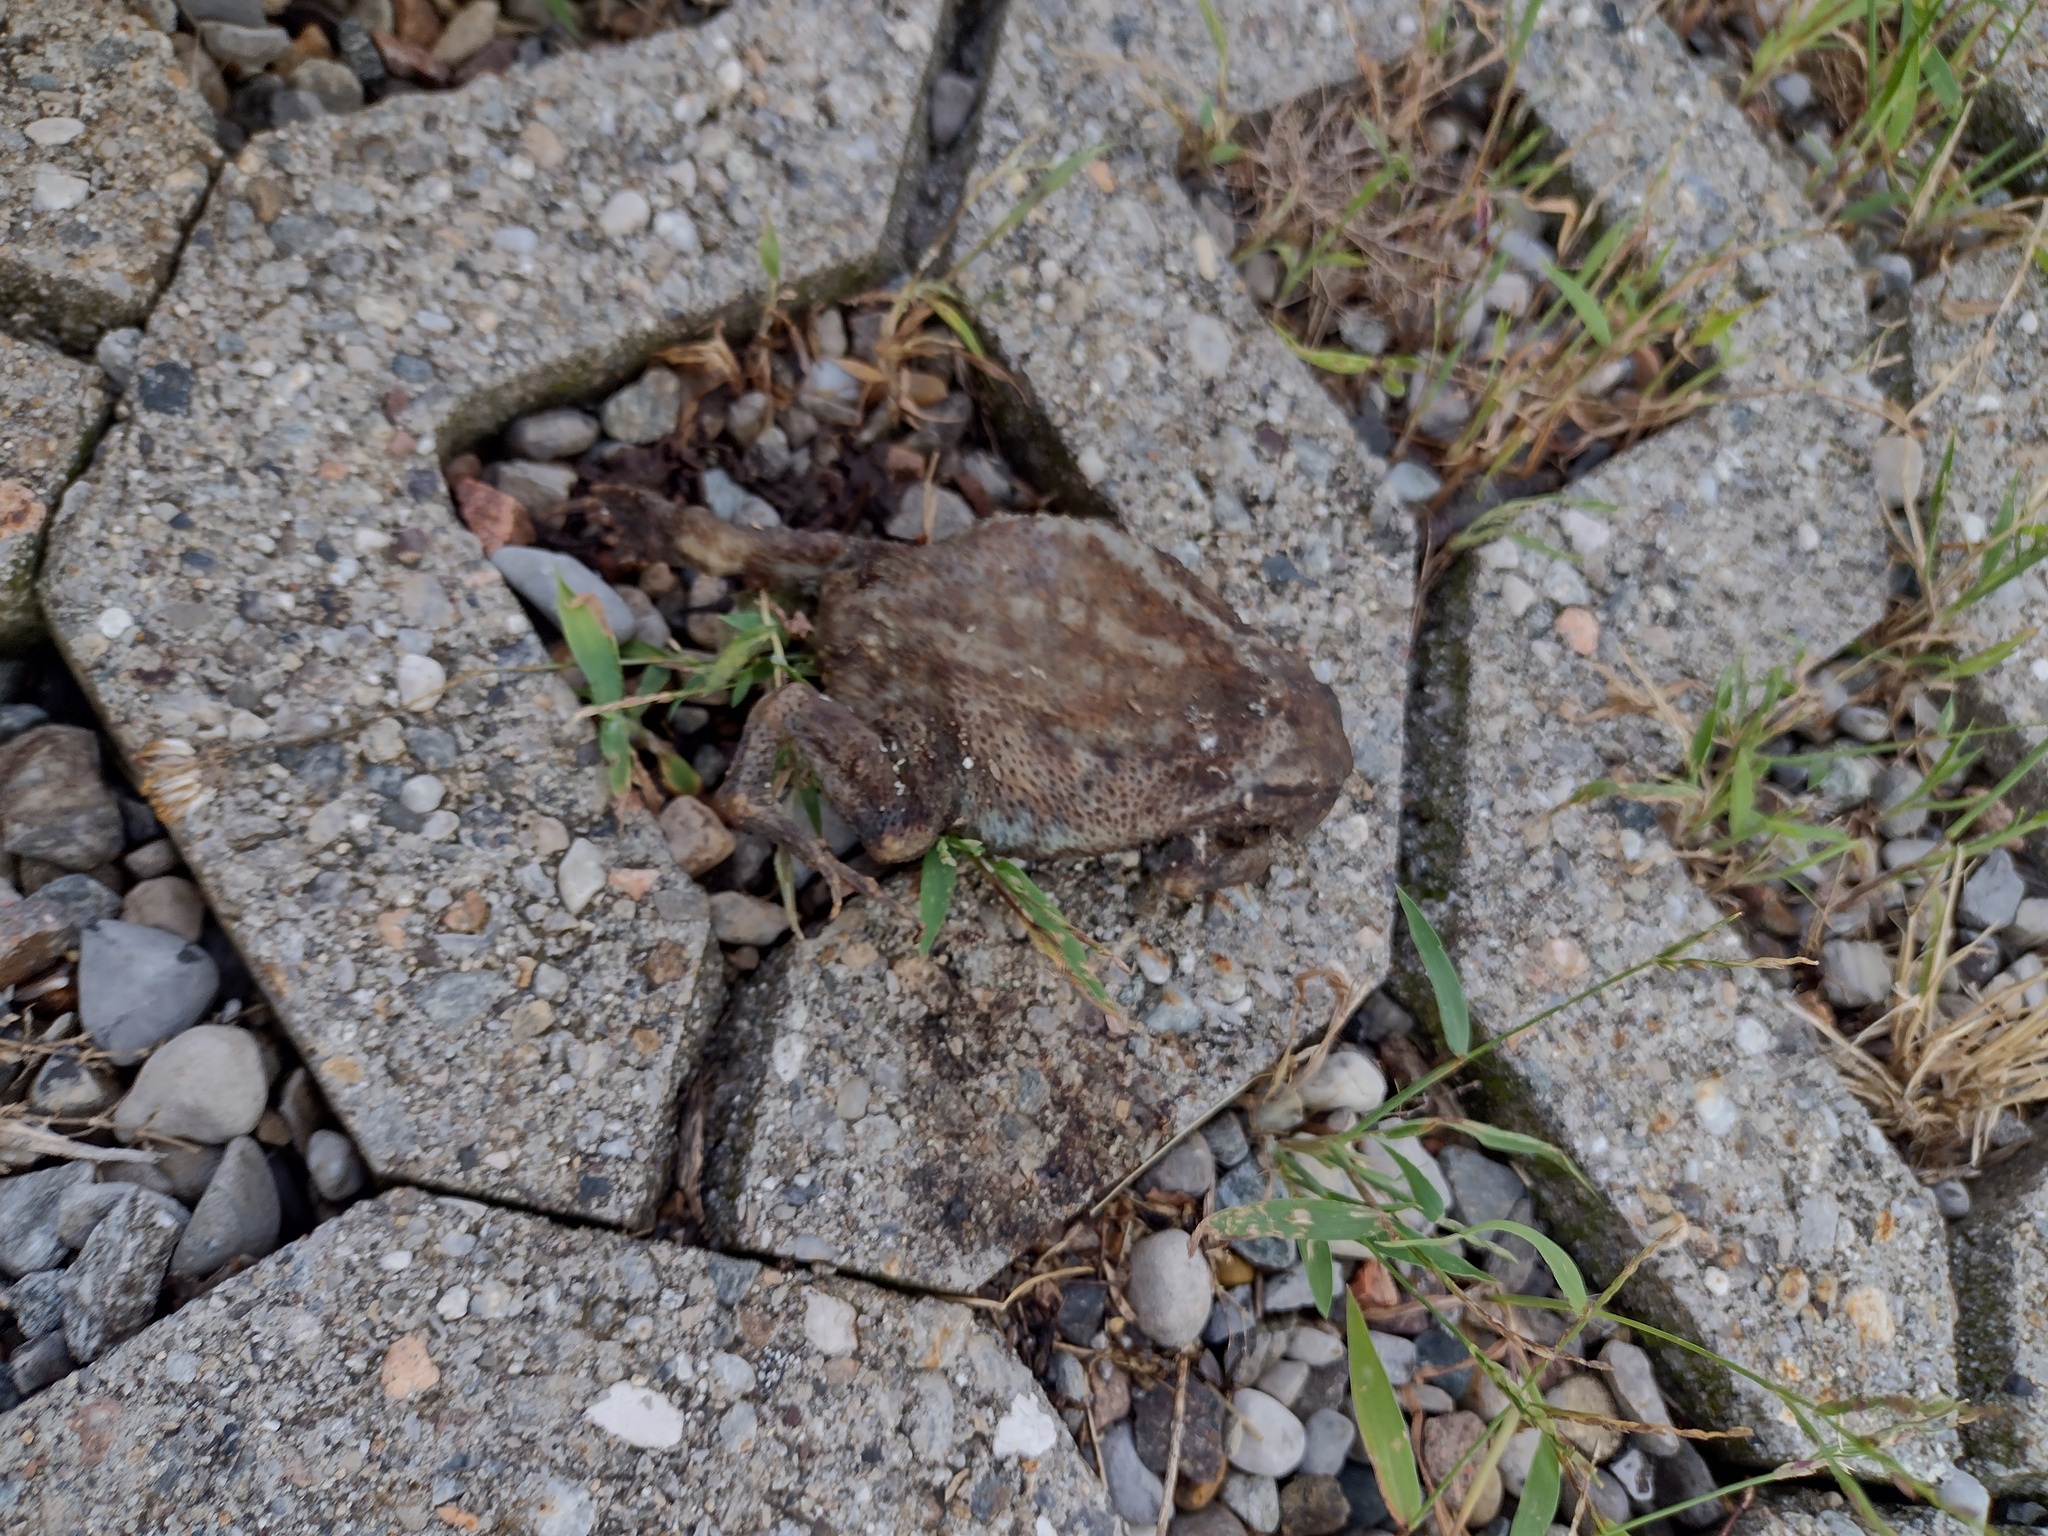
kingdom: Animalia
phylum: Chordata
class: Amphibia
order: Anura
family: Bufonidae
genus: Bufo
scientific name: Bufo bufo
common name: Common toad
